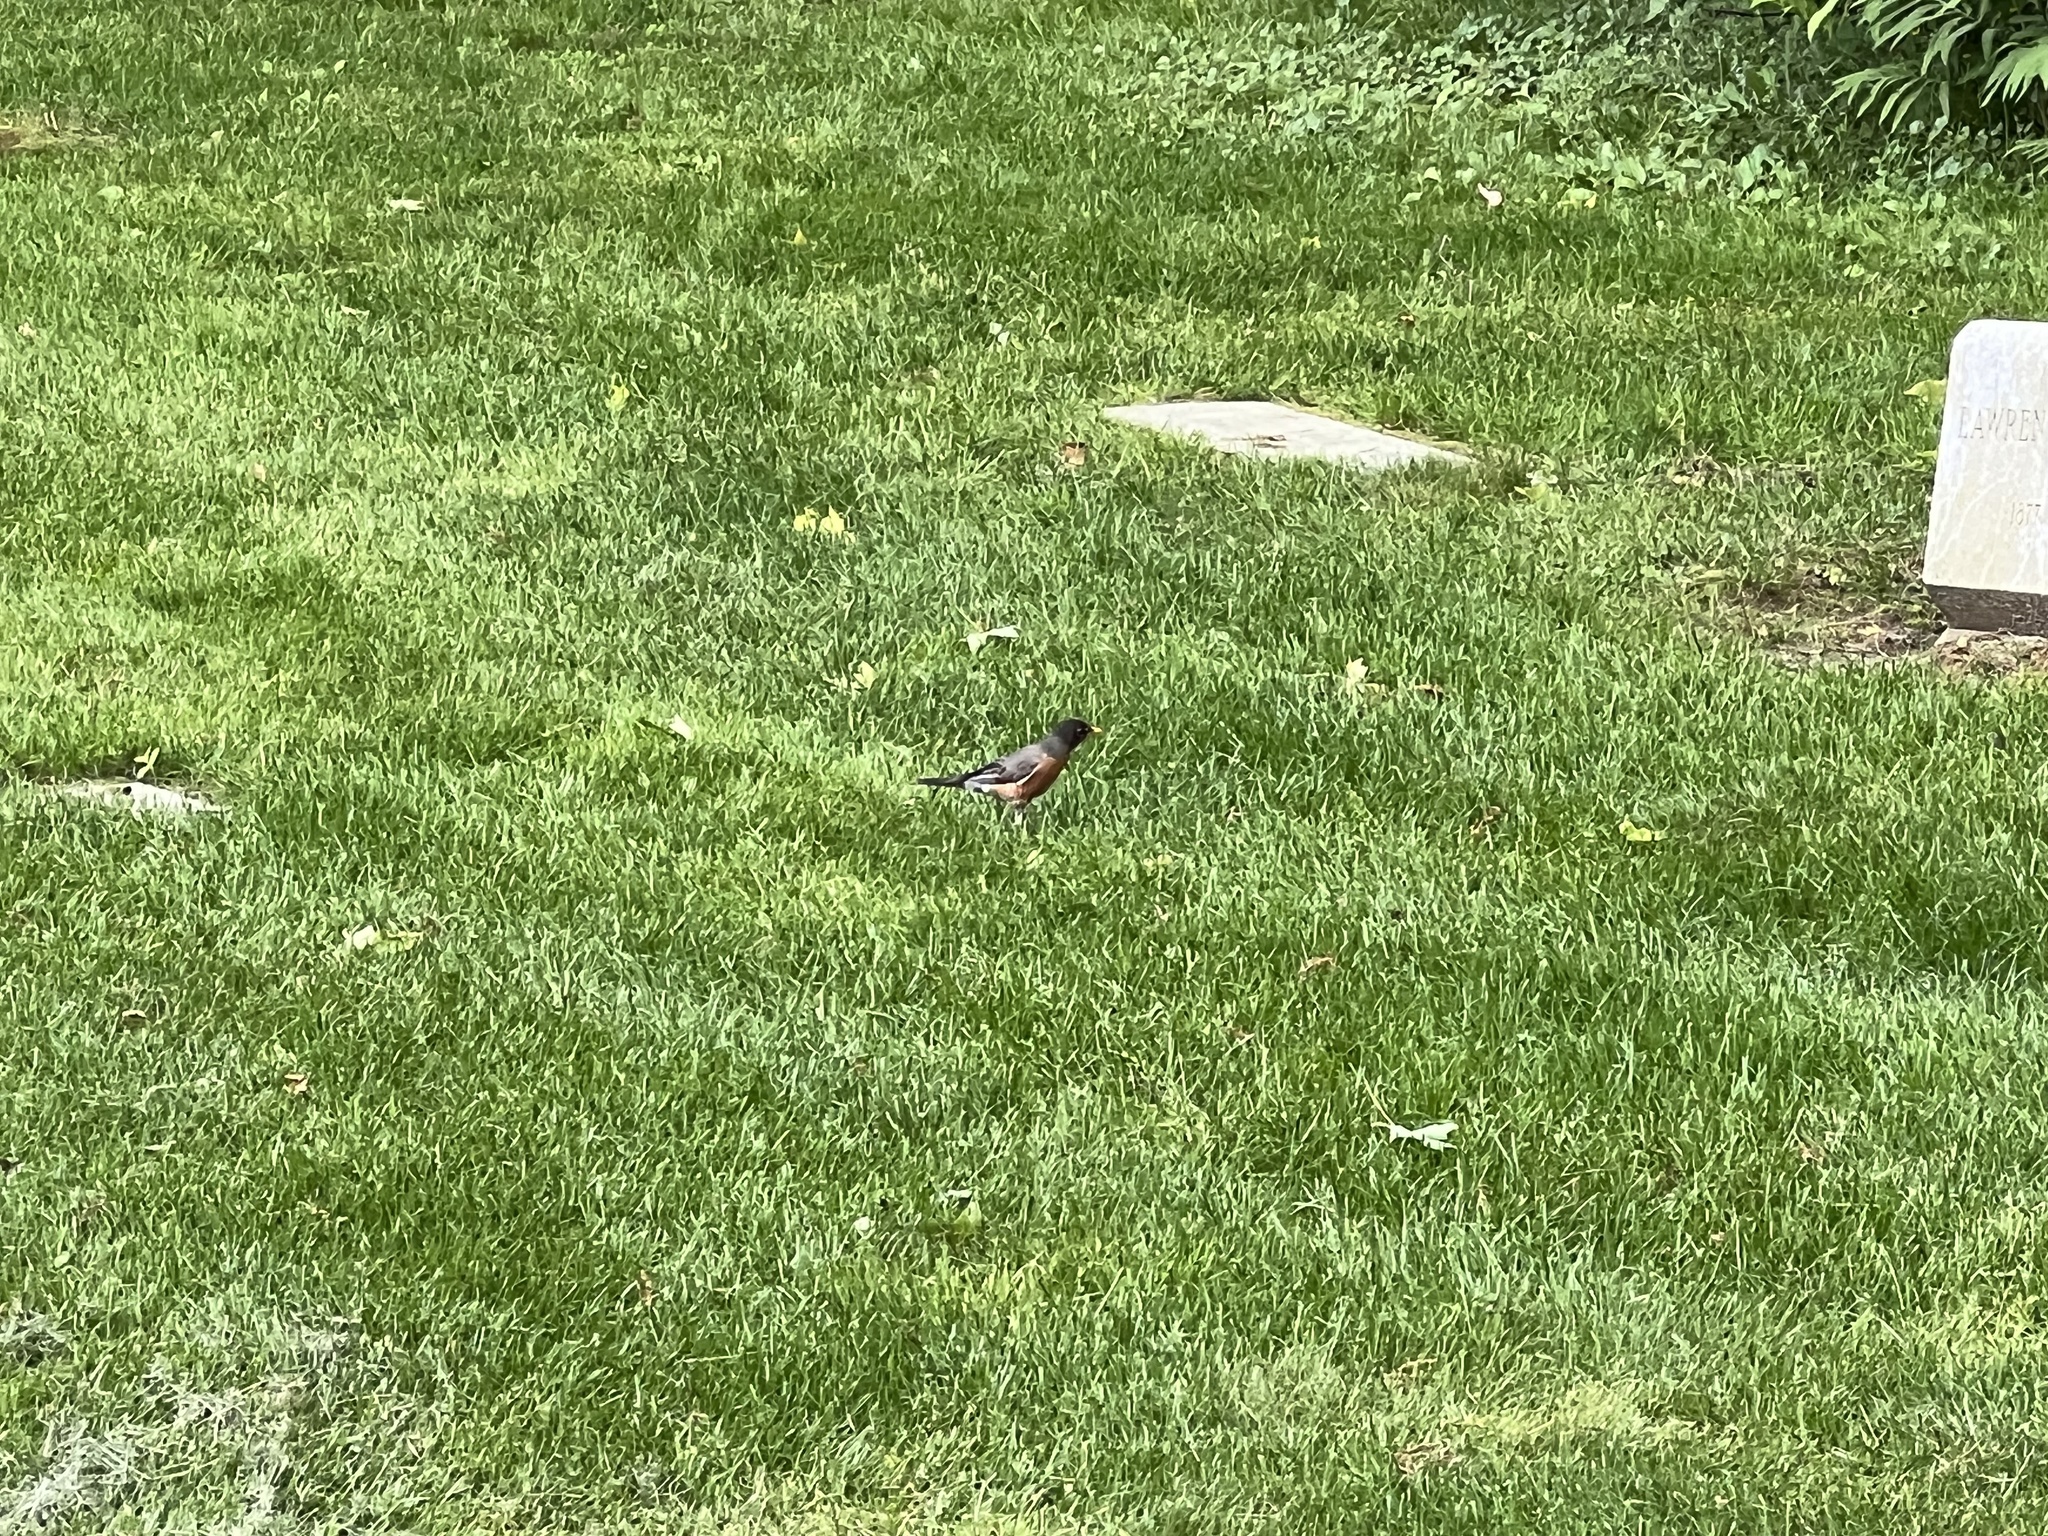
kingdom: Animalia
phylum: Chordata
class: Aves
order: Passeriformes
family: Turdidae
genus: Turdus
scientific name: Turdus migratorius
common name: American robin
